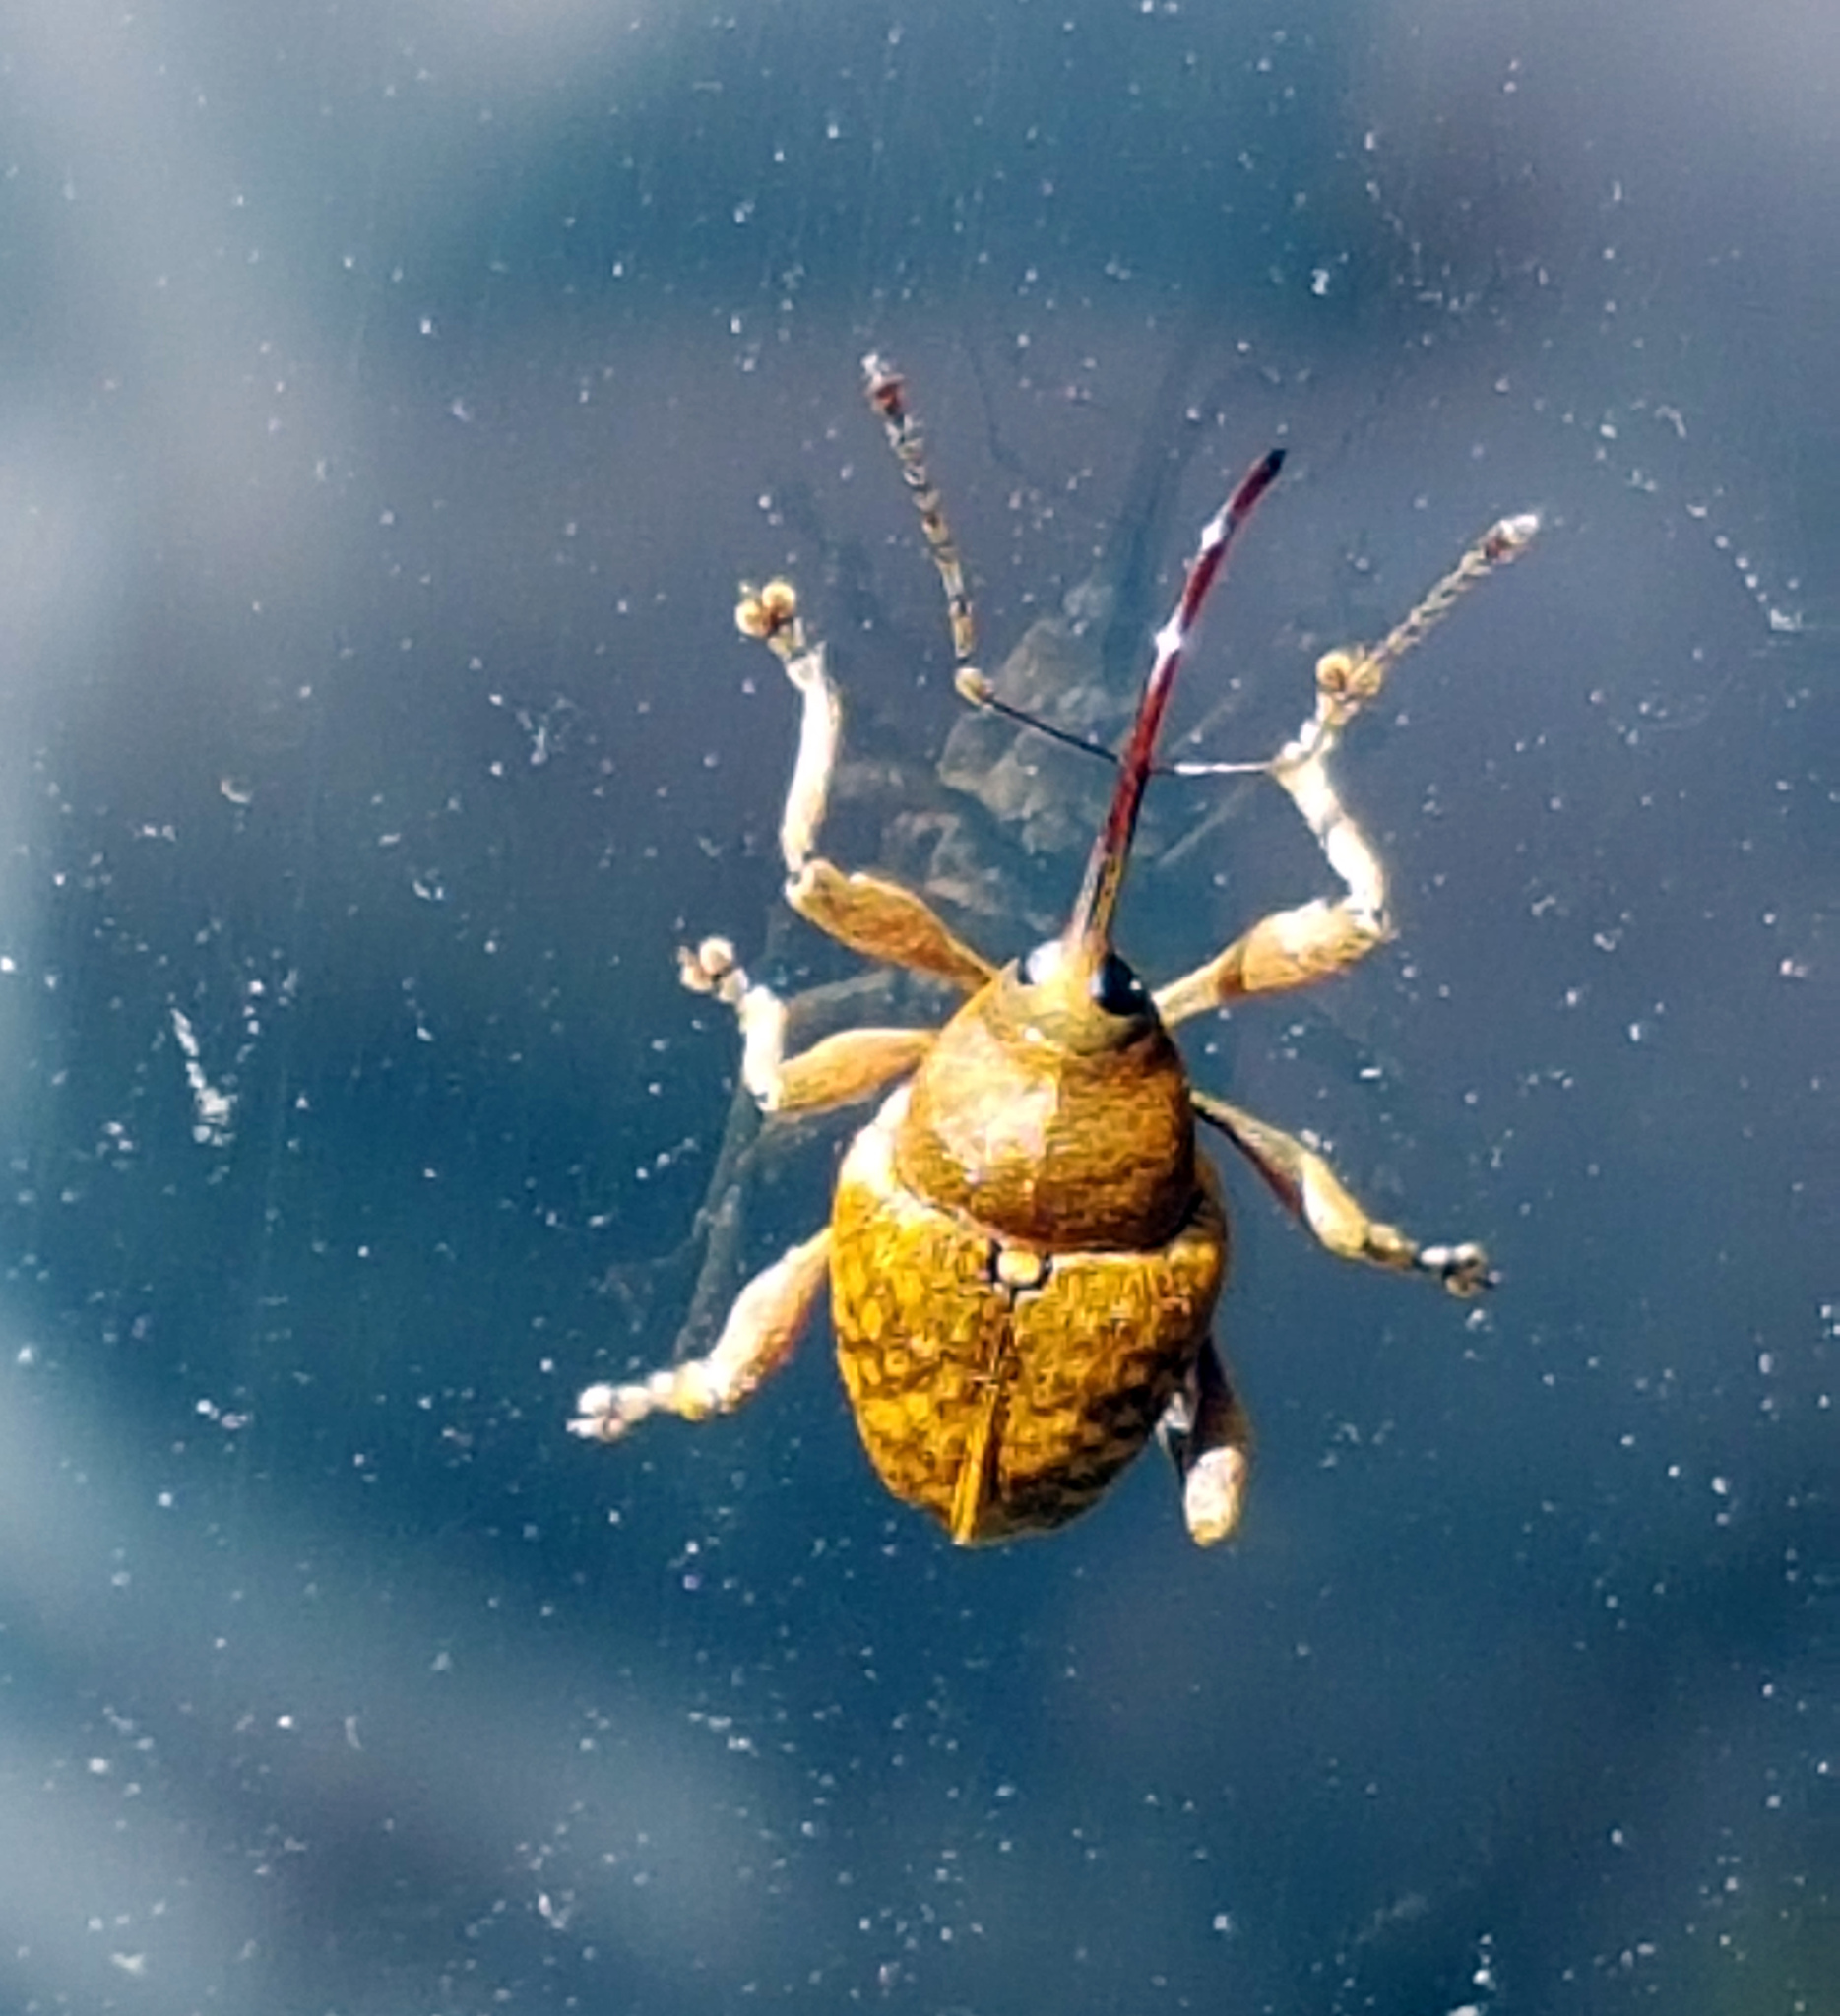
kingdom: Animalia
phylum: Arthropoda
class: Insecta
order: Coleoptera
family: Curculionidae
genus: Curculio
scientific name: Curculio nucum
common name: Nut weevil
